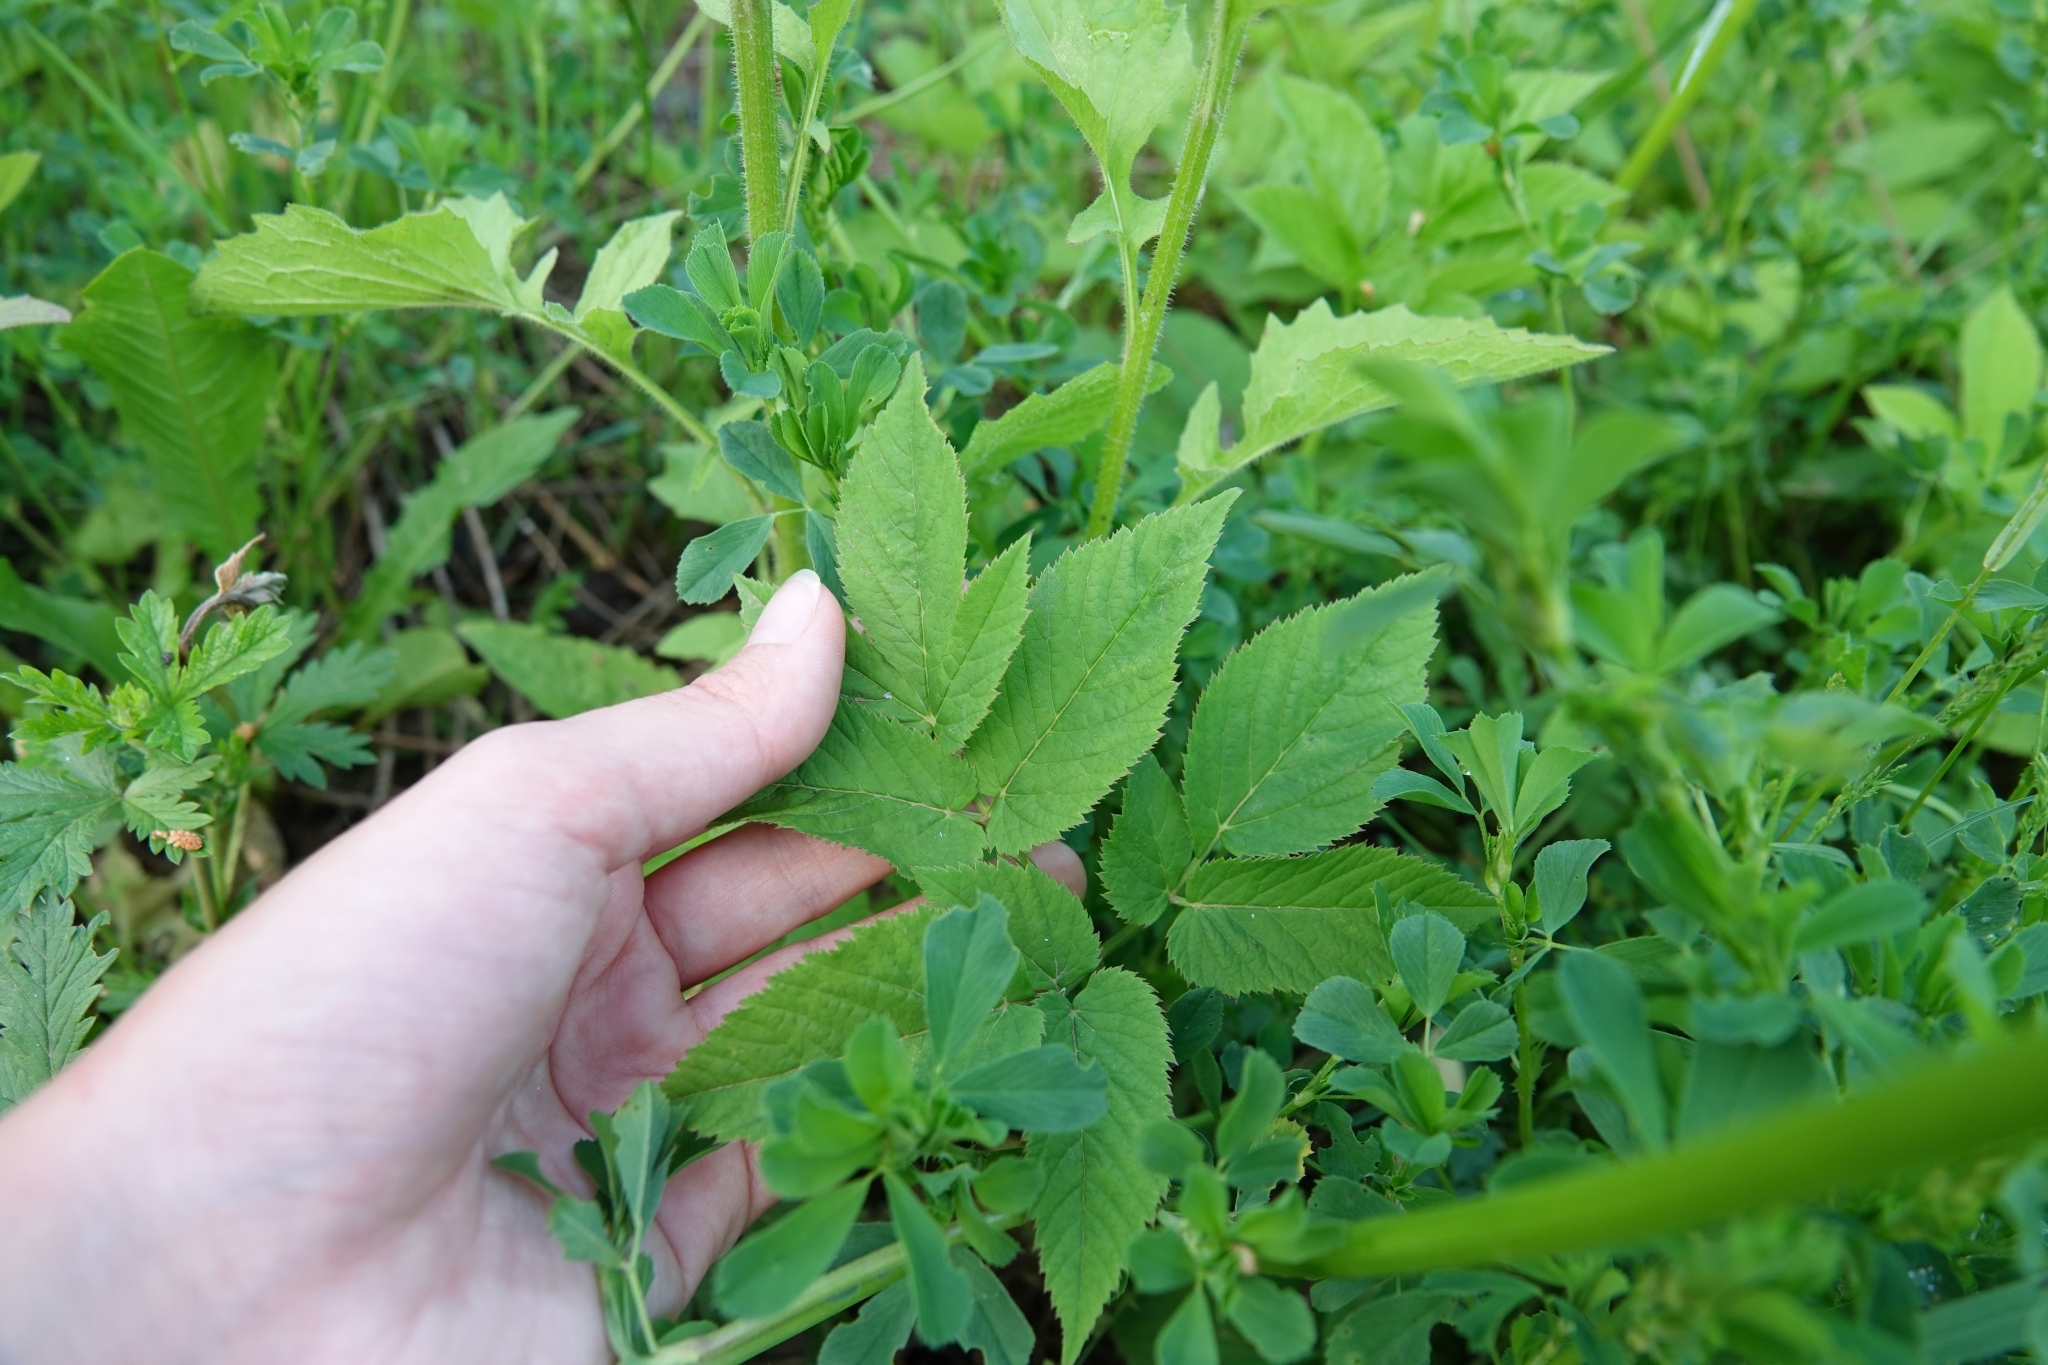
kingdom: Plantae
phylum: Tracheophyta
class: Magnoliopsida
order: Apiales
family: Apiaceae
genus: Aegopodium
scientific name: Aegopodium podagraria
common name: Ground-elder
